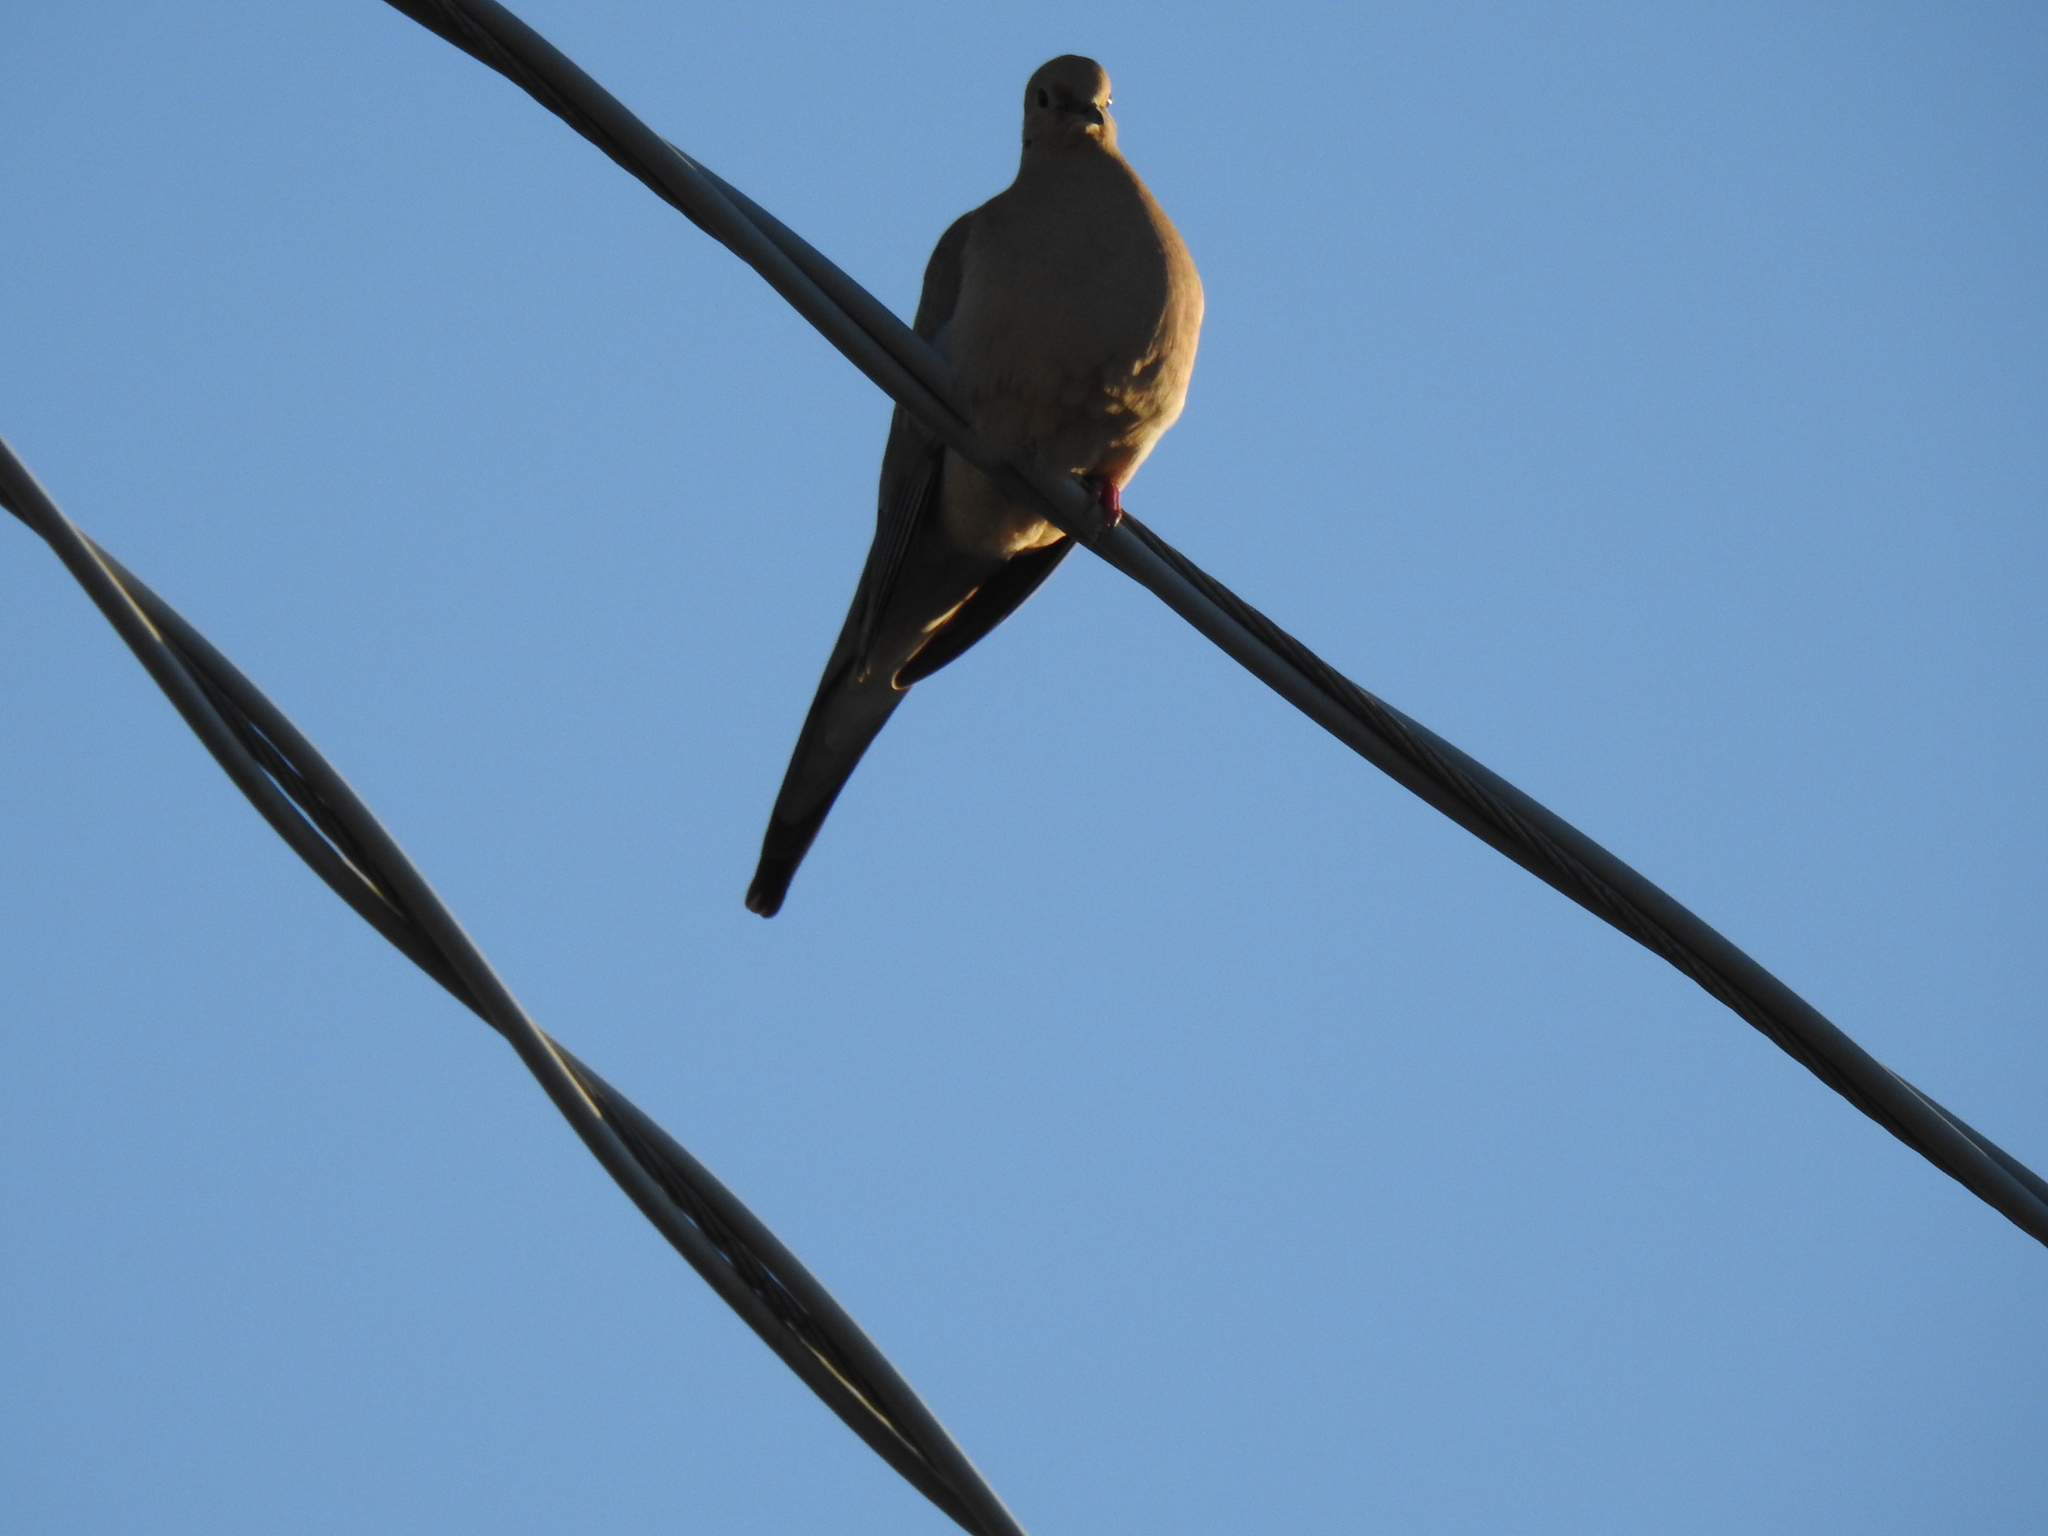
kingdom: Animalia
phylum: Chordata
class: Aves
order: Columbiformes
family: Columbidae
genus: Zenaida
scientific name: Zenaida macroura
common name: Mourning dove
